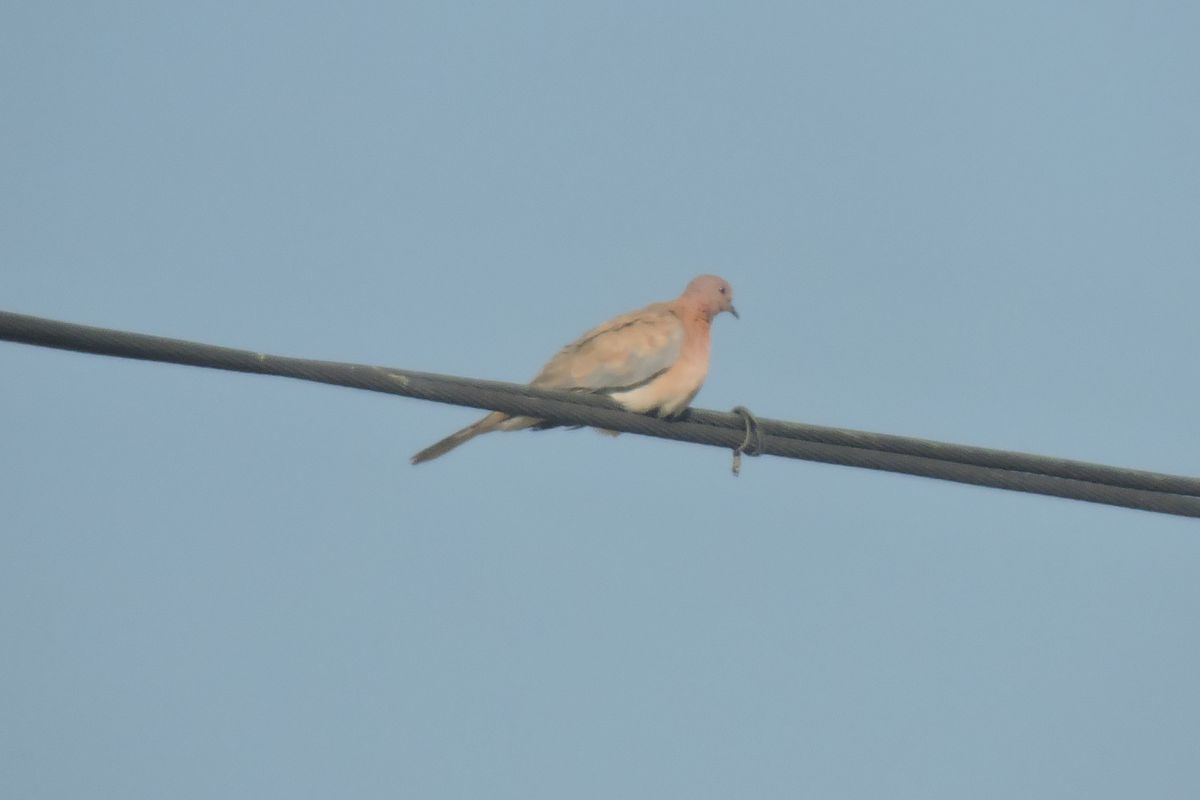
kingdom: Animalia
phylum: Chordata
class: Aves
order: Columbiformes
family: Columbidae
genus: Spilopelia
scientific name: Spilopelia senegalensis
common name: Laughing dove
